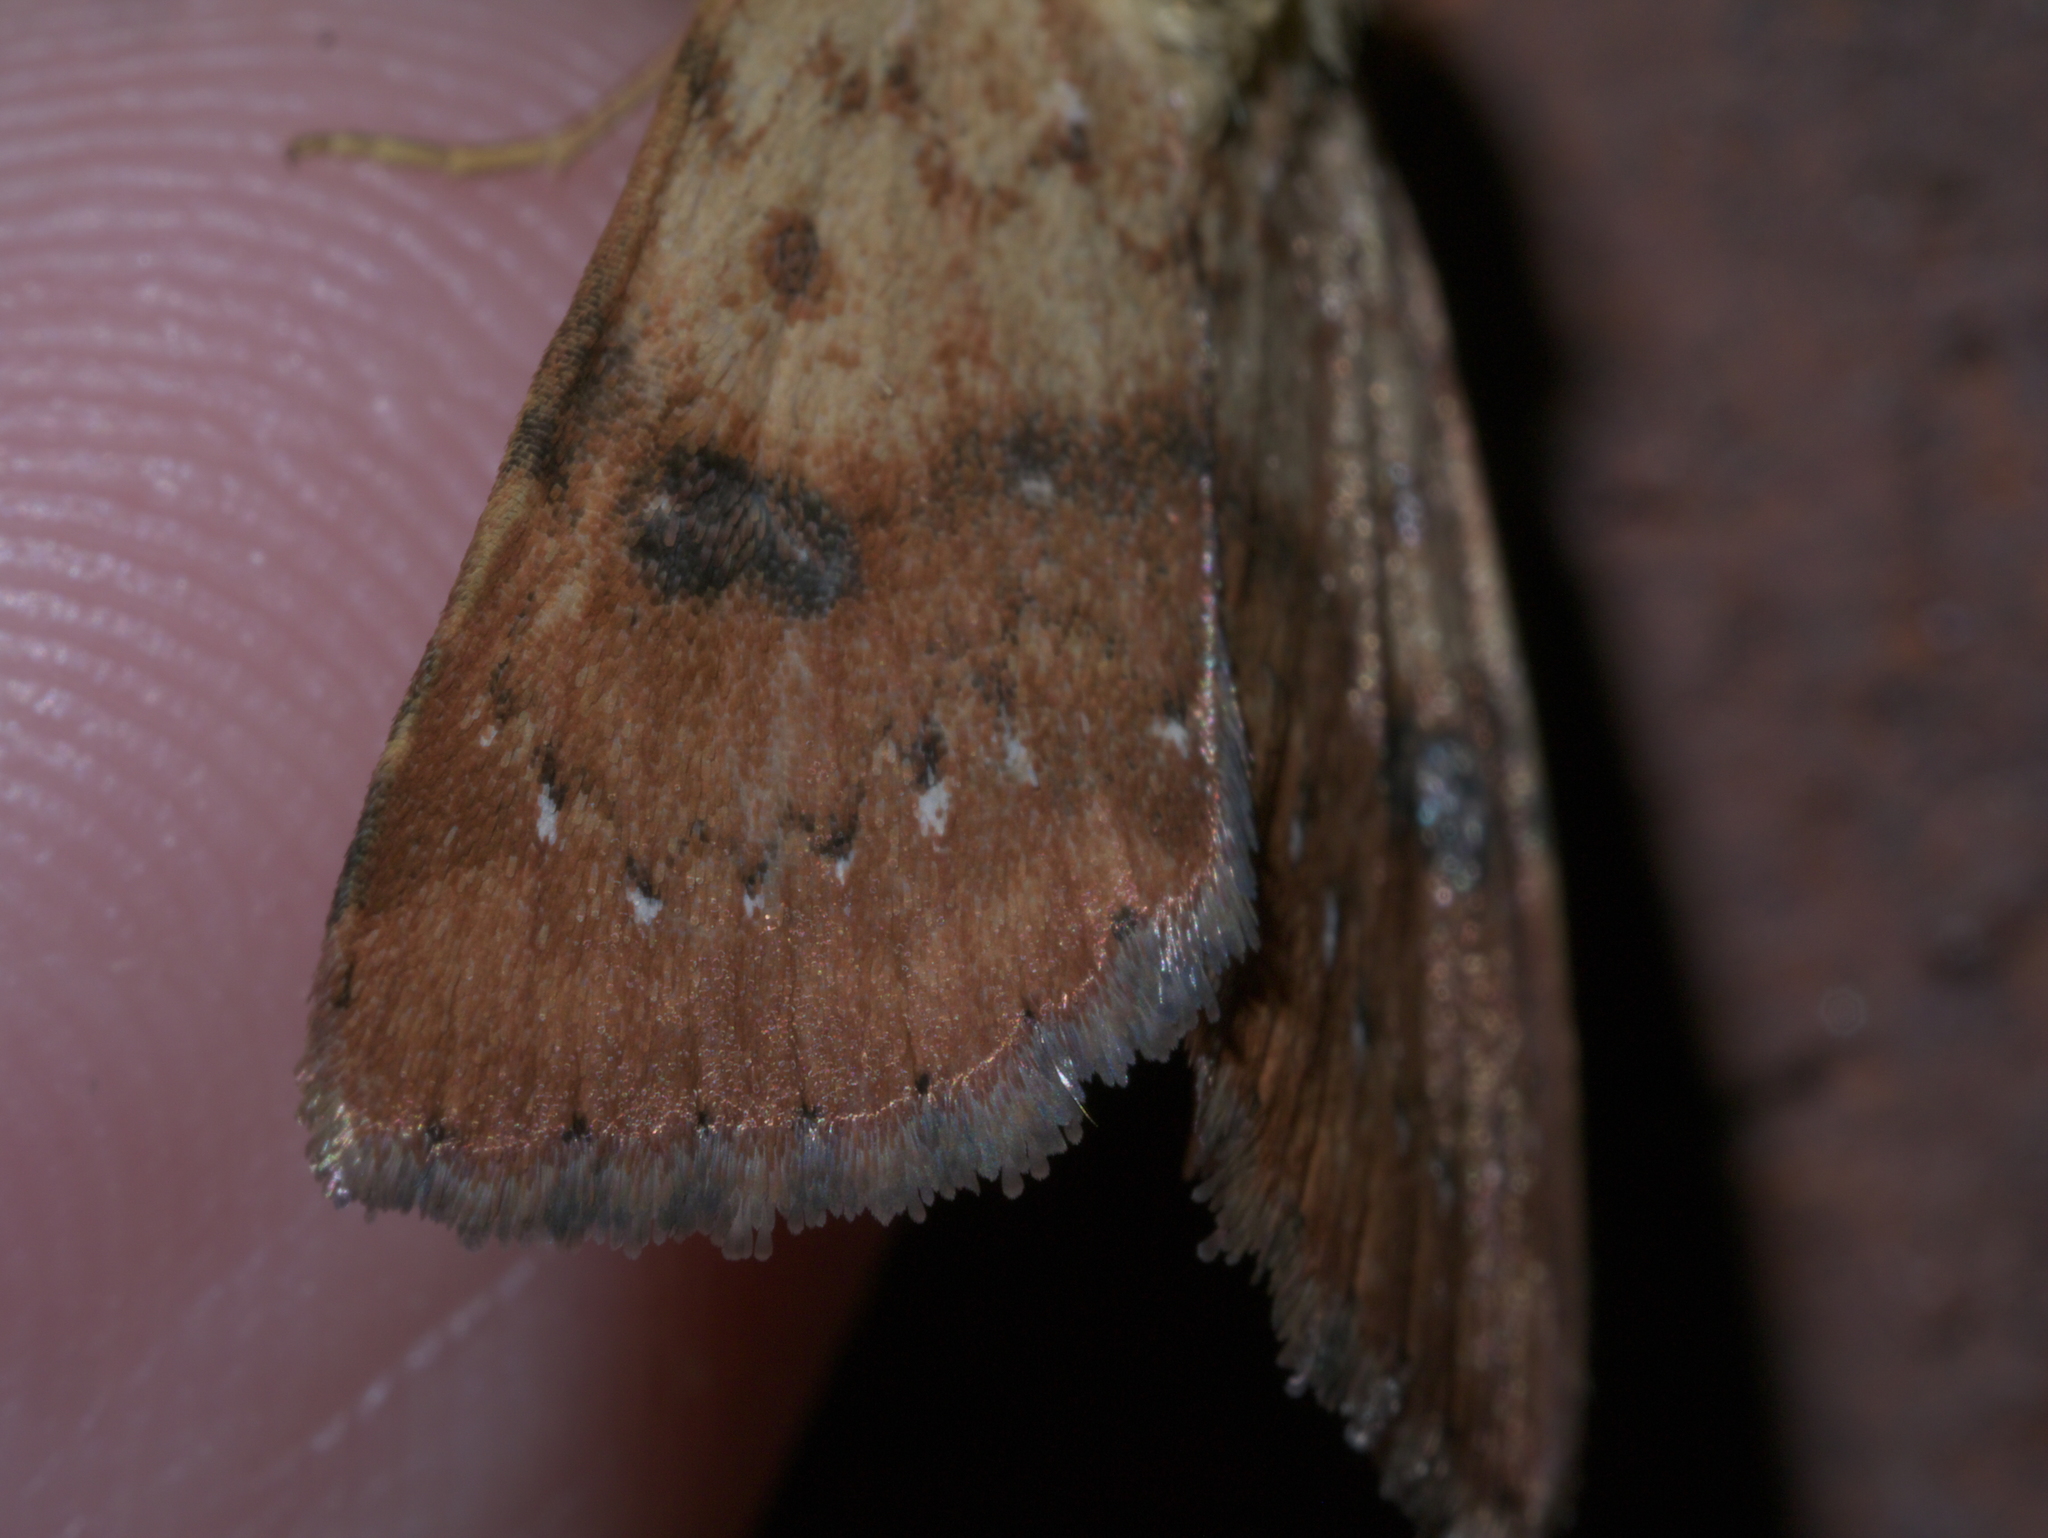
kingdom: Animalia
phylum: Arthropoda
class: Insecta
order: Lepidoptera
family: Noctuidae
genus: Heliocheilus
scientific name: Heliocheilus lupata
